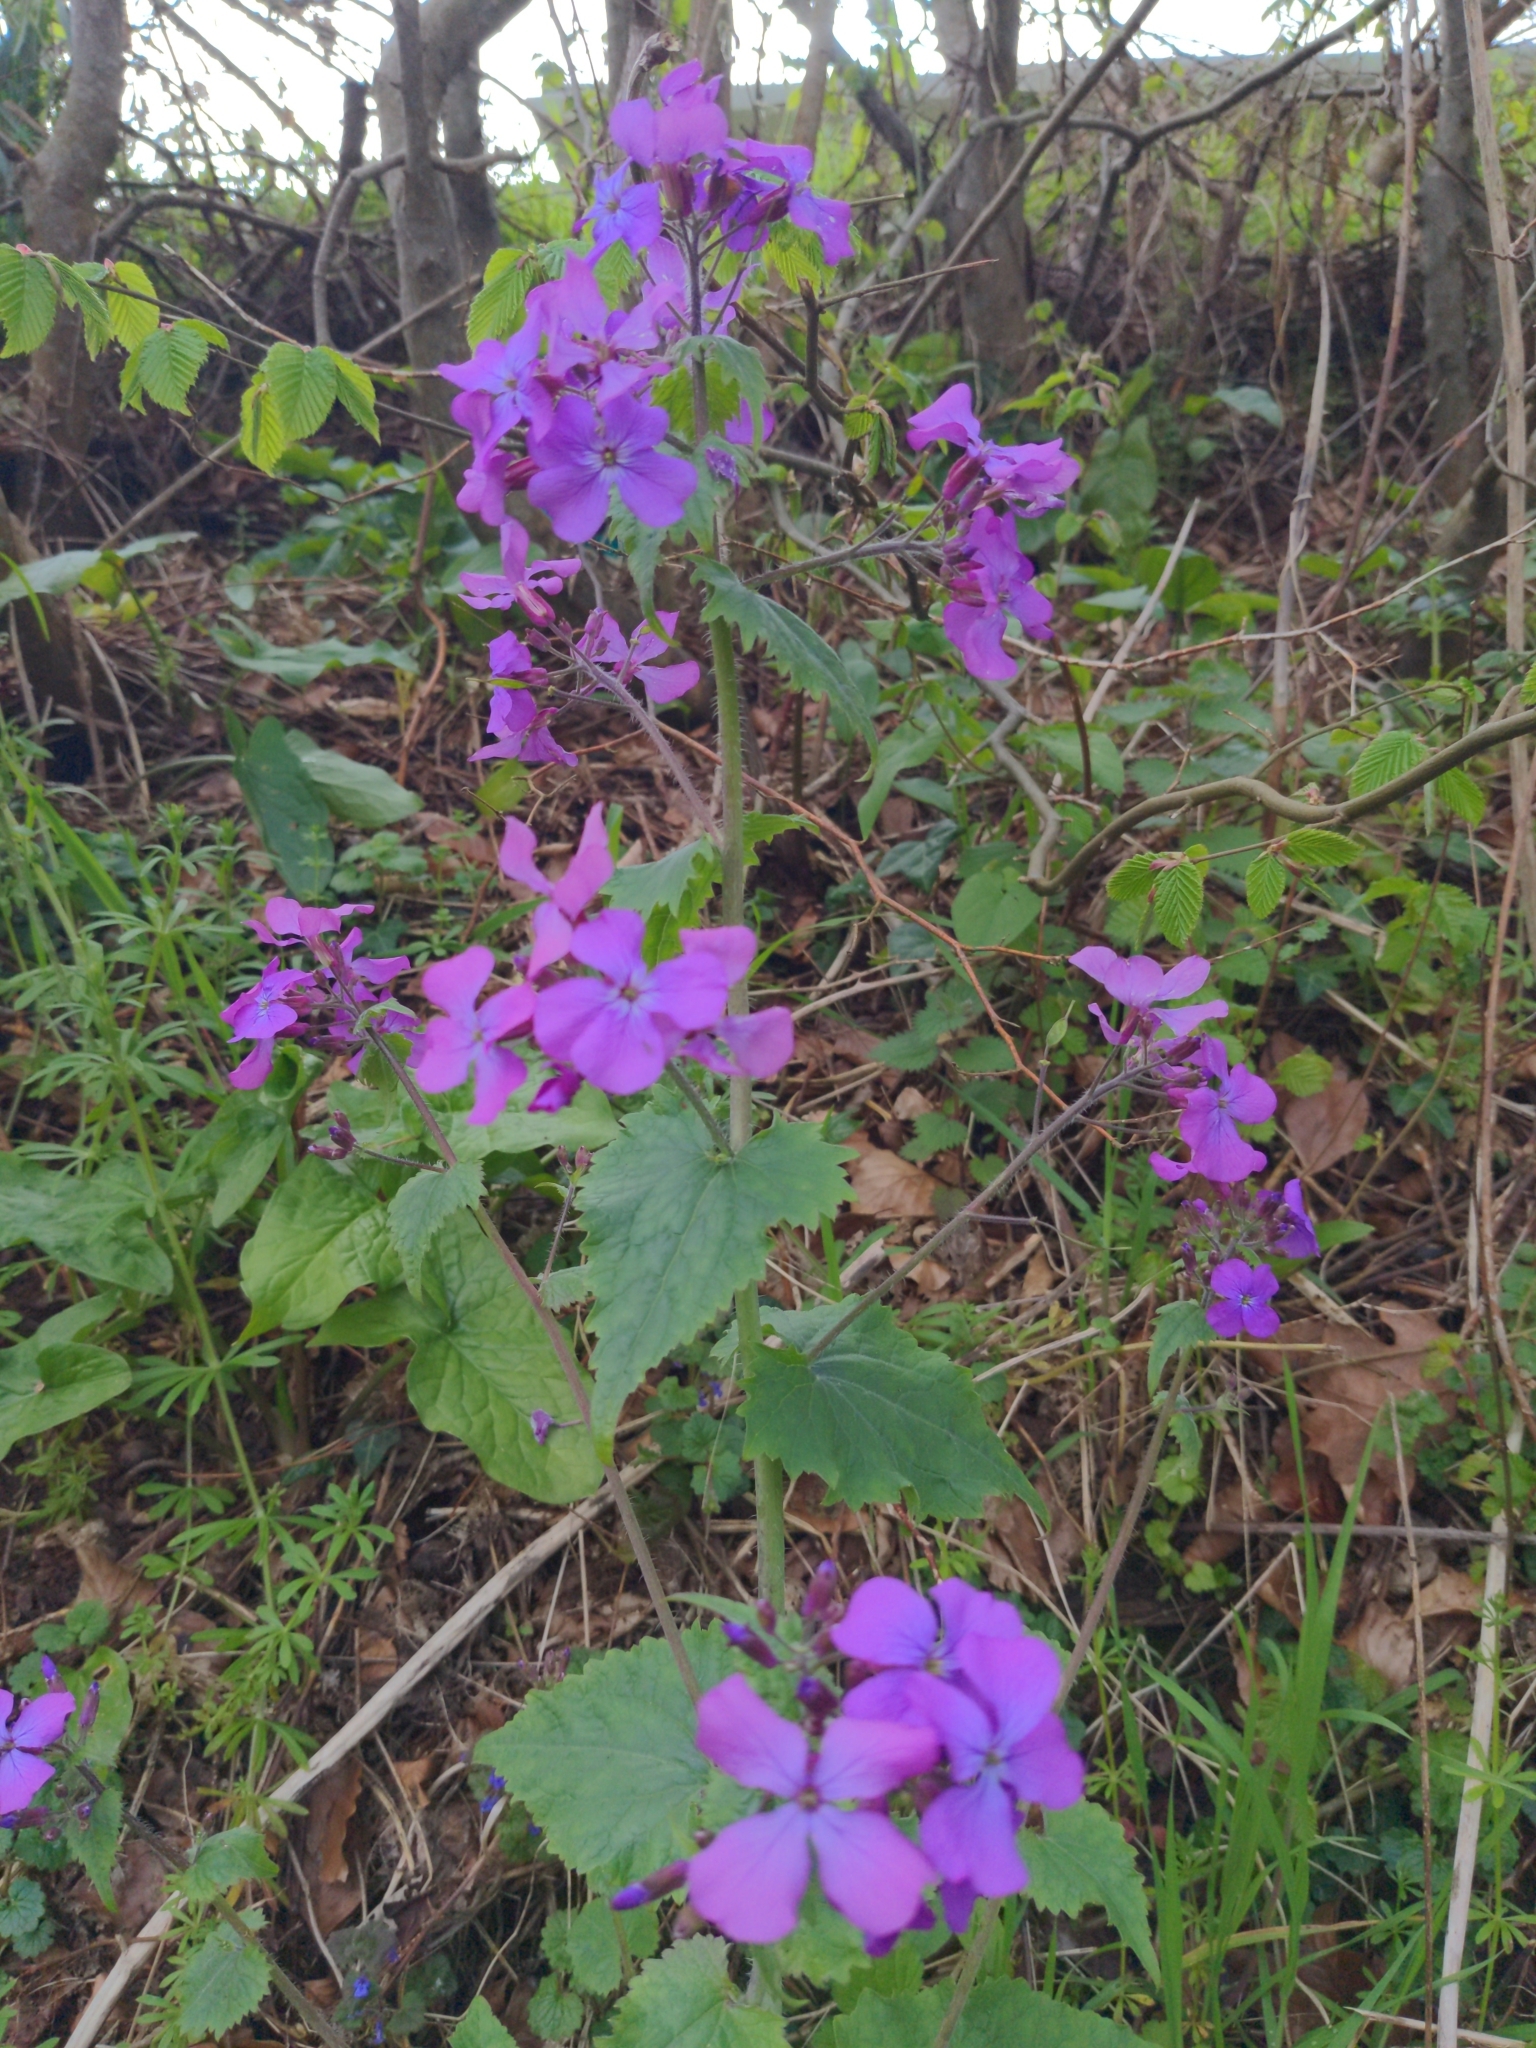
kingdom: Plantae
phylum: Tracheophyta
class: Magnoliopsida
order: Brassicales
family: Brassicaceae
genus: Lunaria
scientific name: Lunaria annua
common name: Honesty
